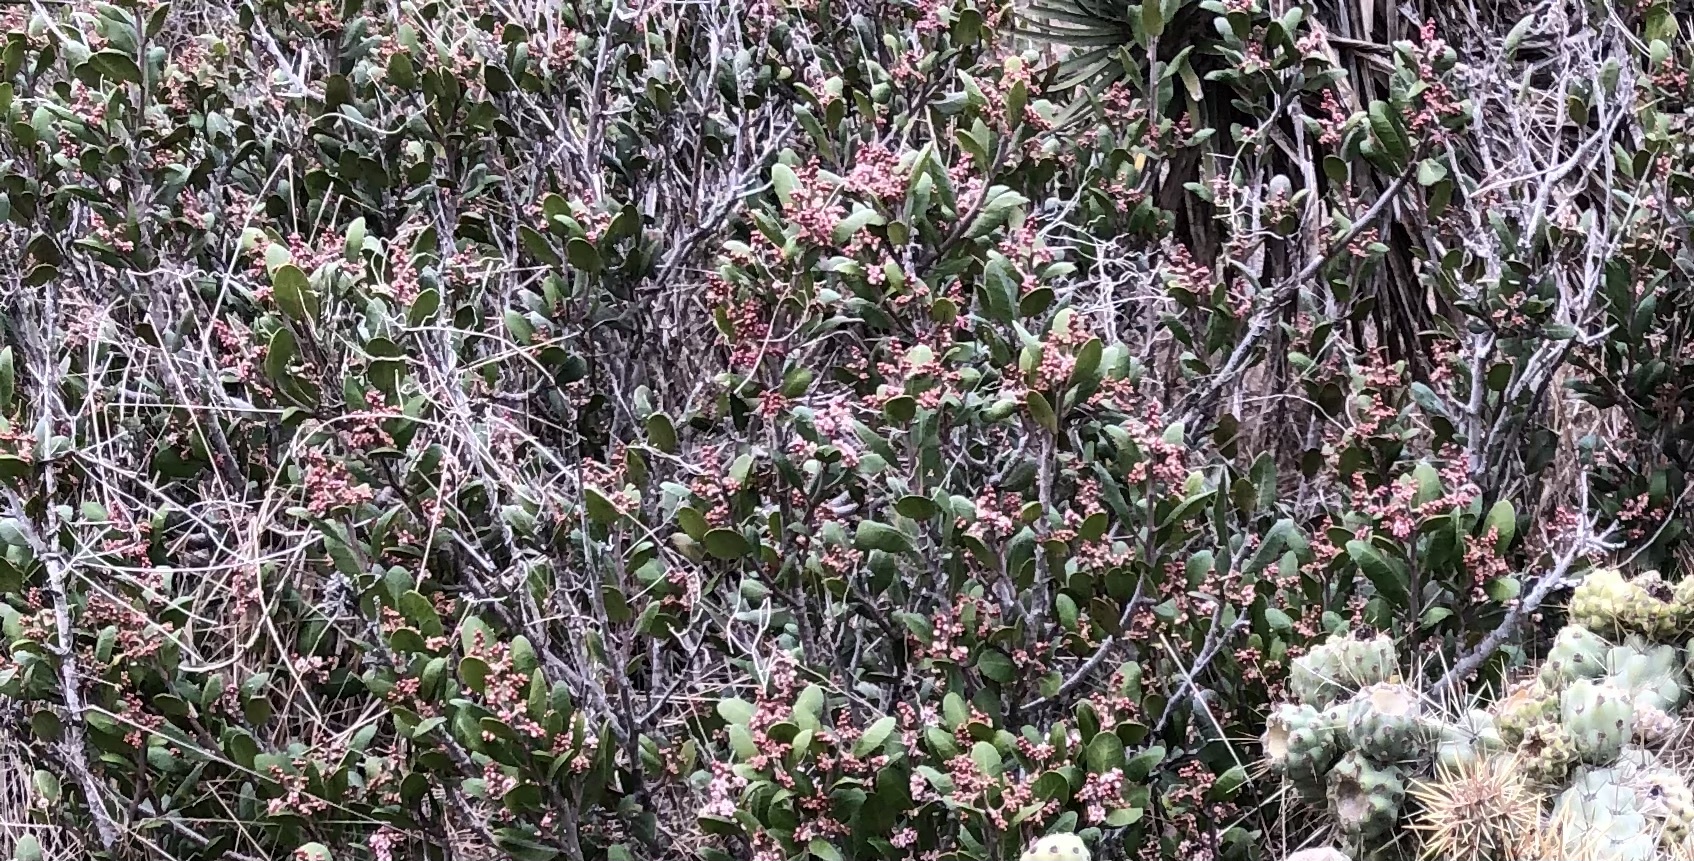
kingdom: Plantae
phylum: Tracheophyta
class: Magnoliopsida
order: Sapindales
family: Anacardiaceae
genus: Rhus
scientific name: Rhus integrifolia
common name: Lemonade sumac
